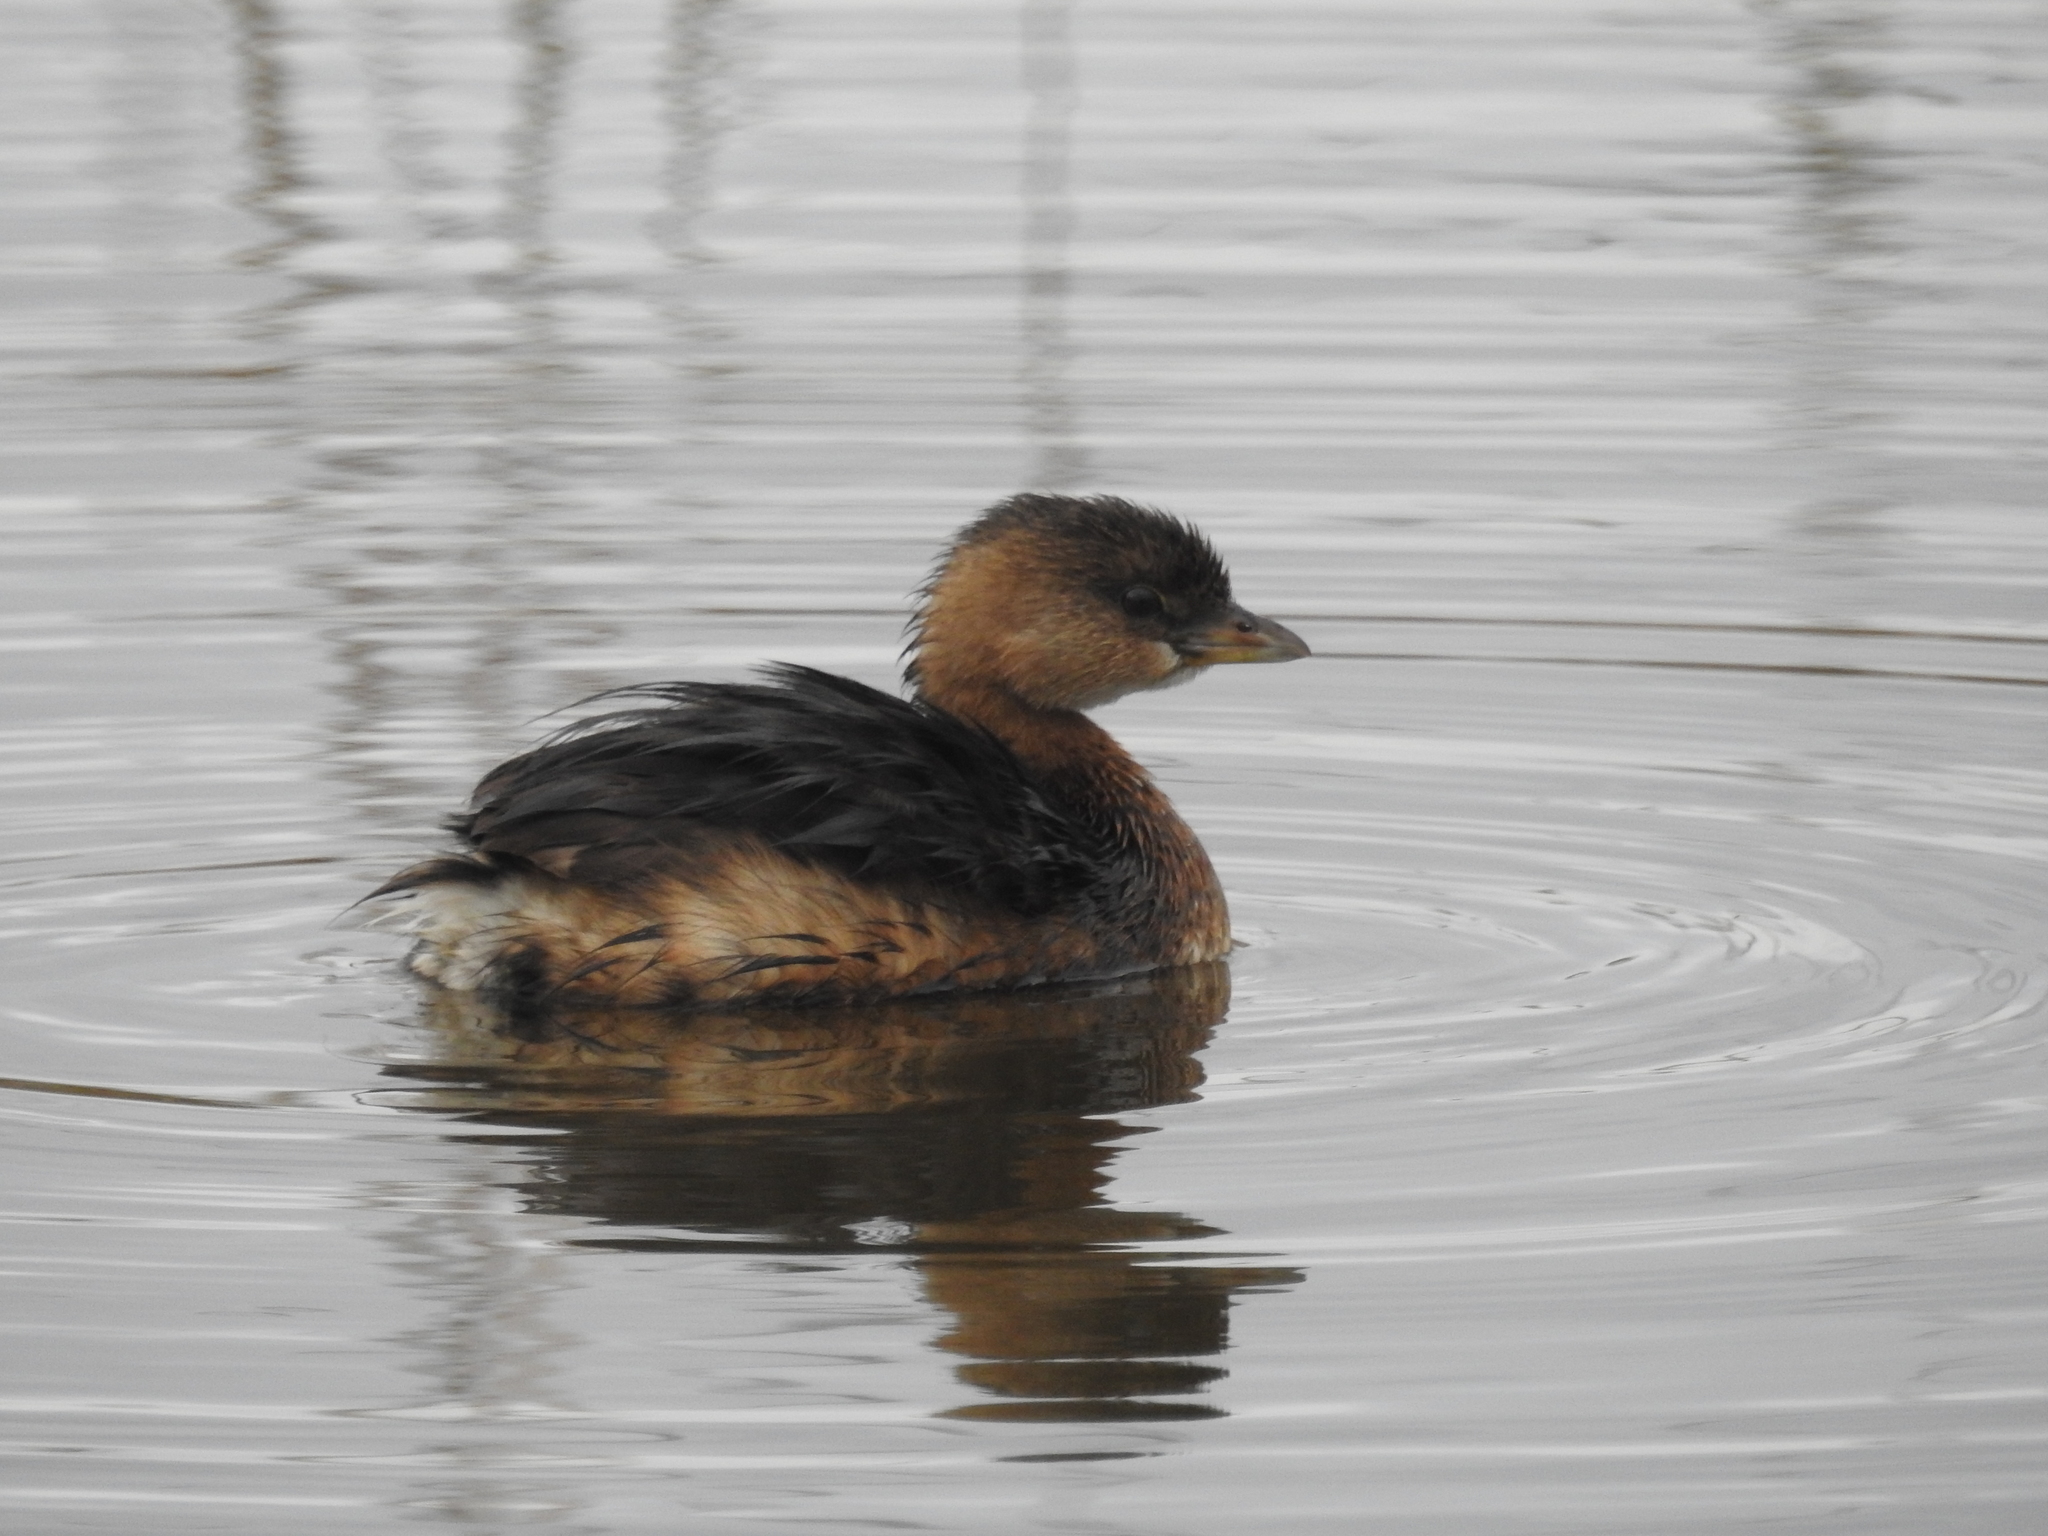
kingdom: Animalia
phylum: Chordata
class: Aves
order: Podicipediformes
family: Podicipedidae
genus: Podilymbus
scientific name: Podilymbus podiceps
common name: Pied-billed grebe
